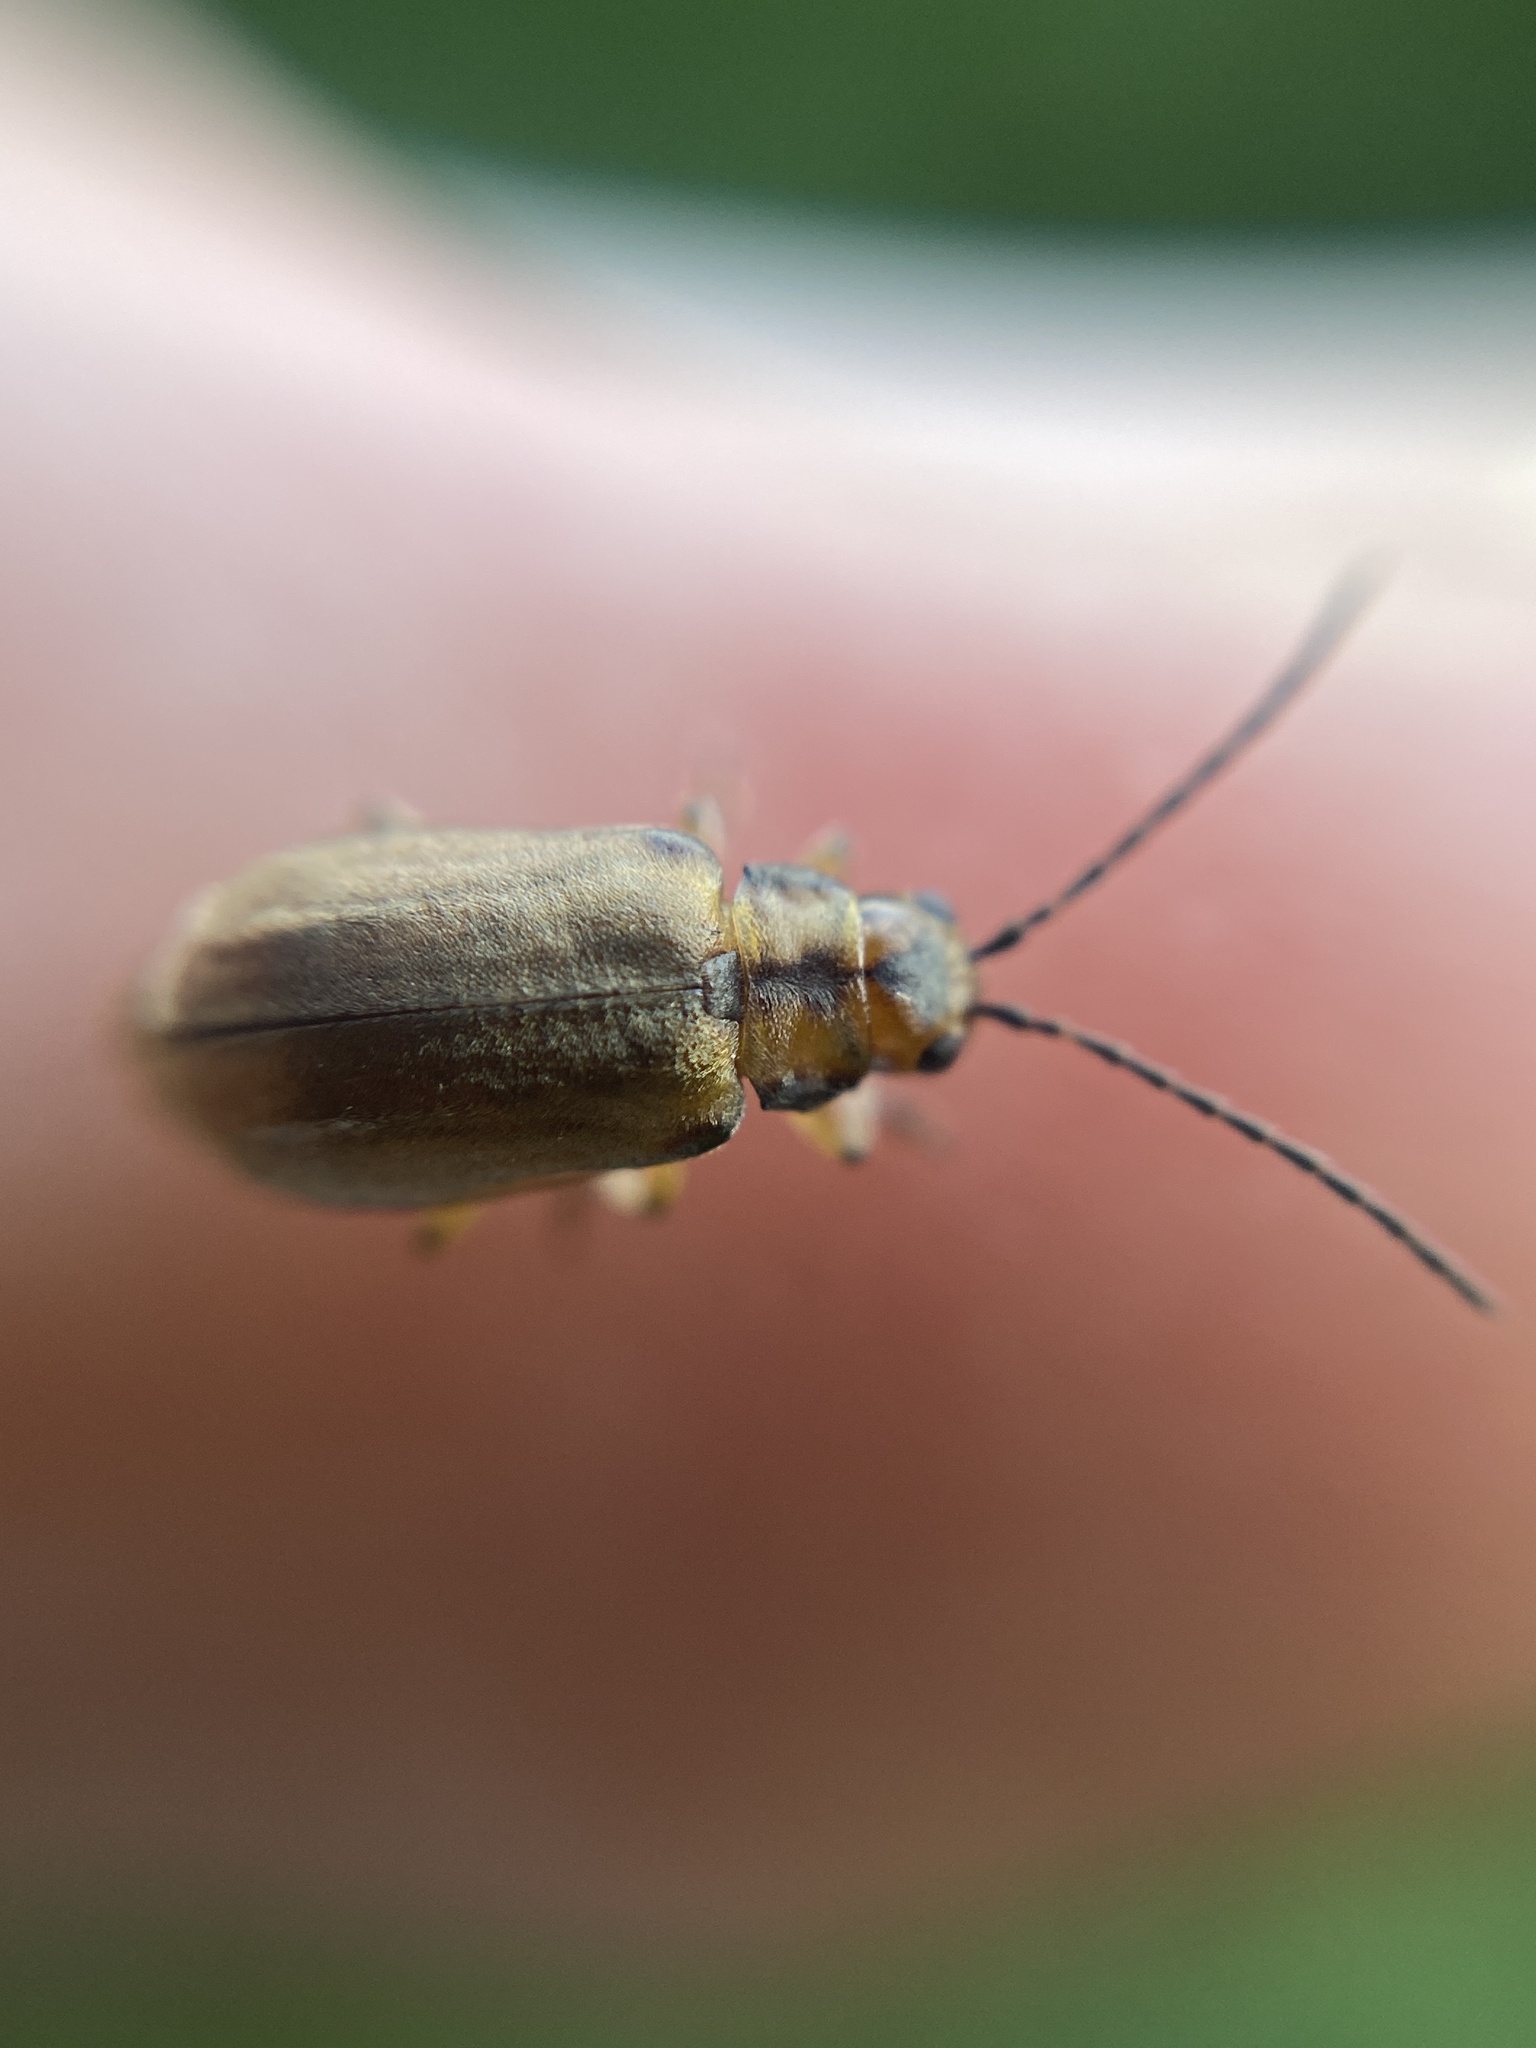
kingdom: Animalia
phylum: Arthropoda
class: Insecta
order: Coleoptera
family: Chrysomelidae
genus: Pyrrhalta
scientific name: Pyrrhalta viburni
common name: Guelder-rose leaf beetle
